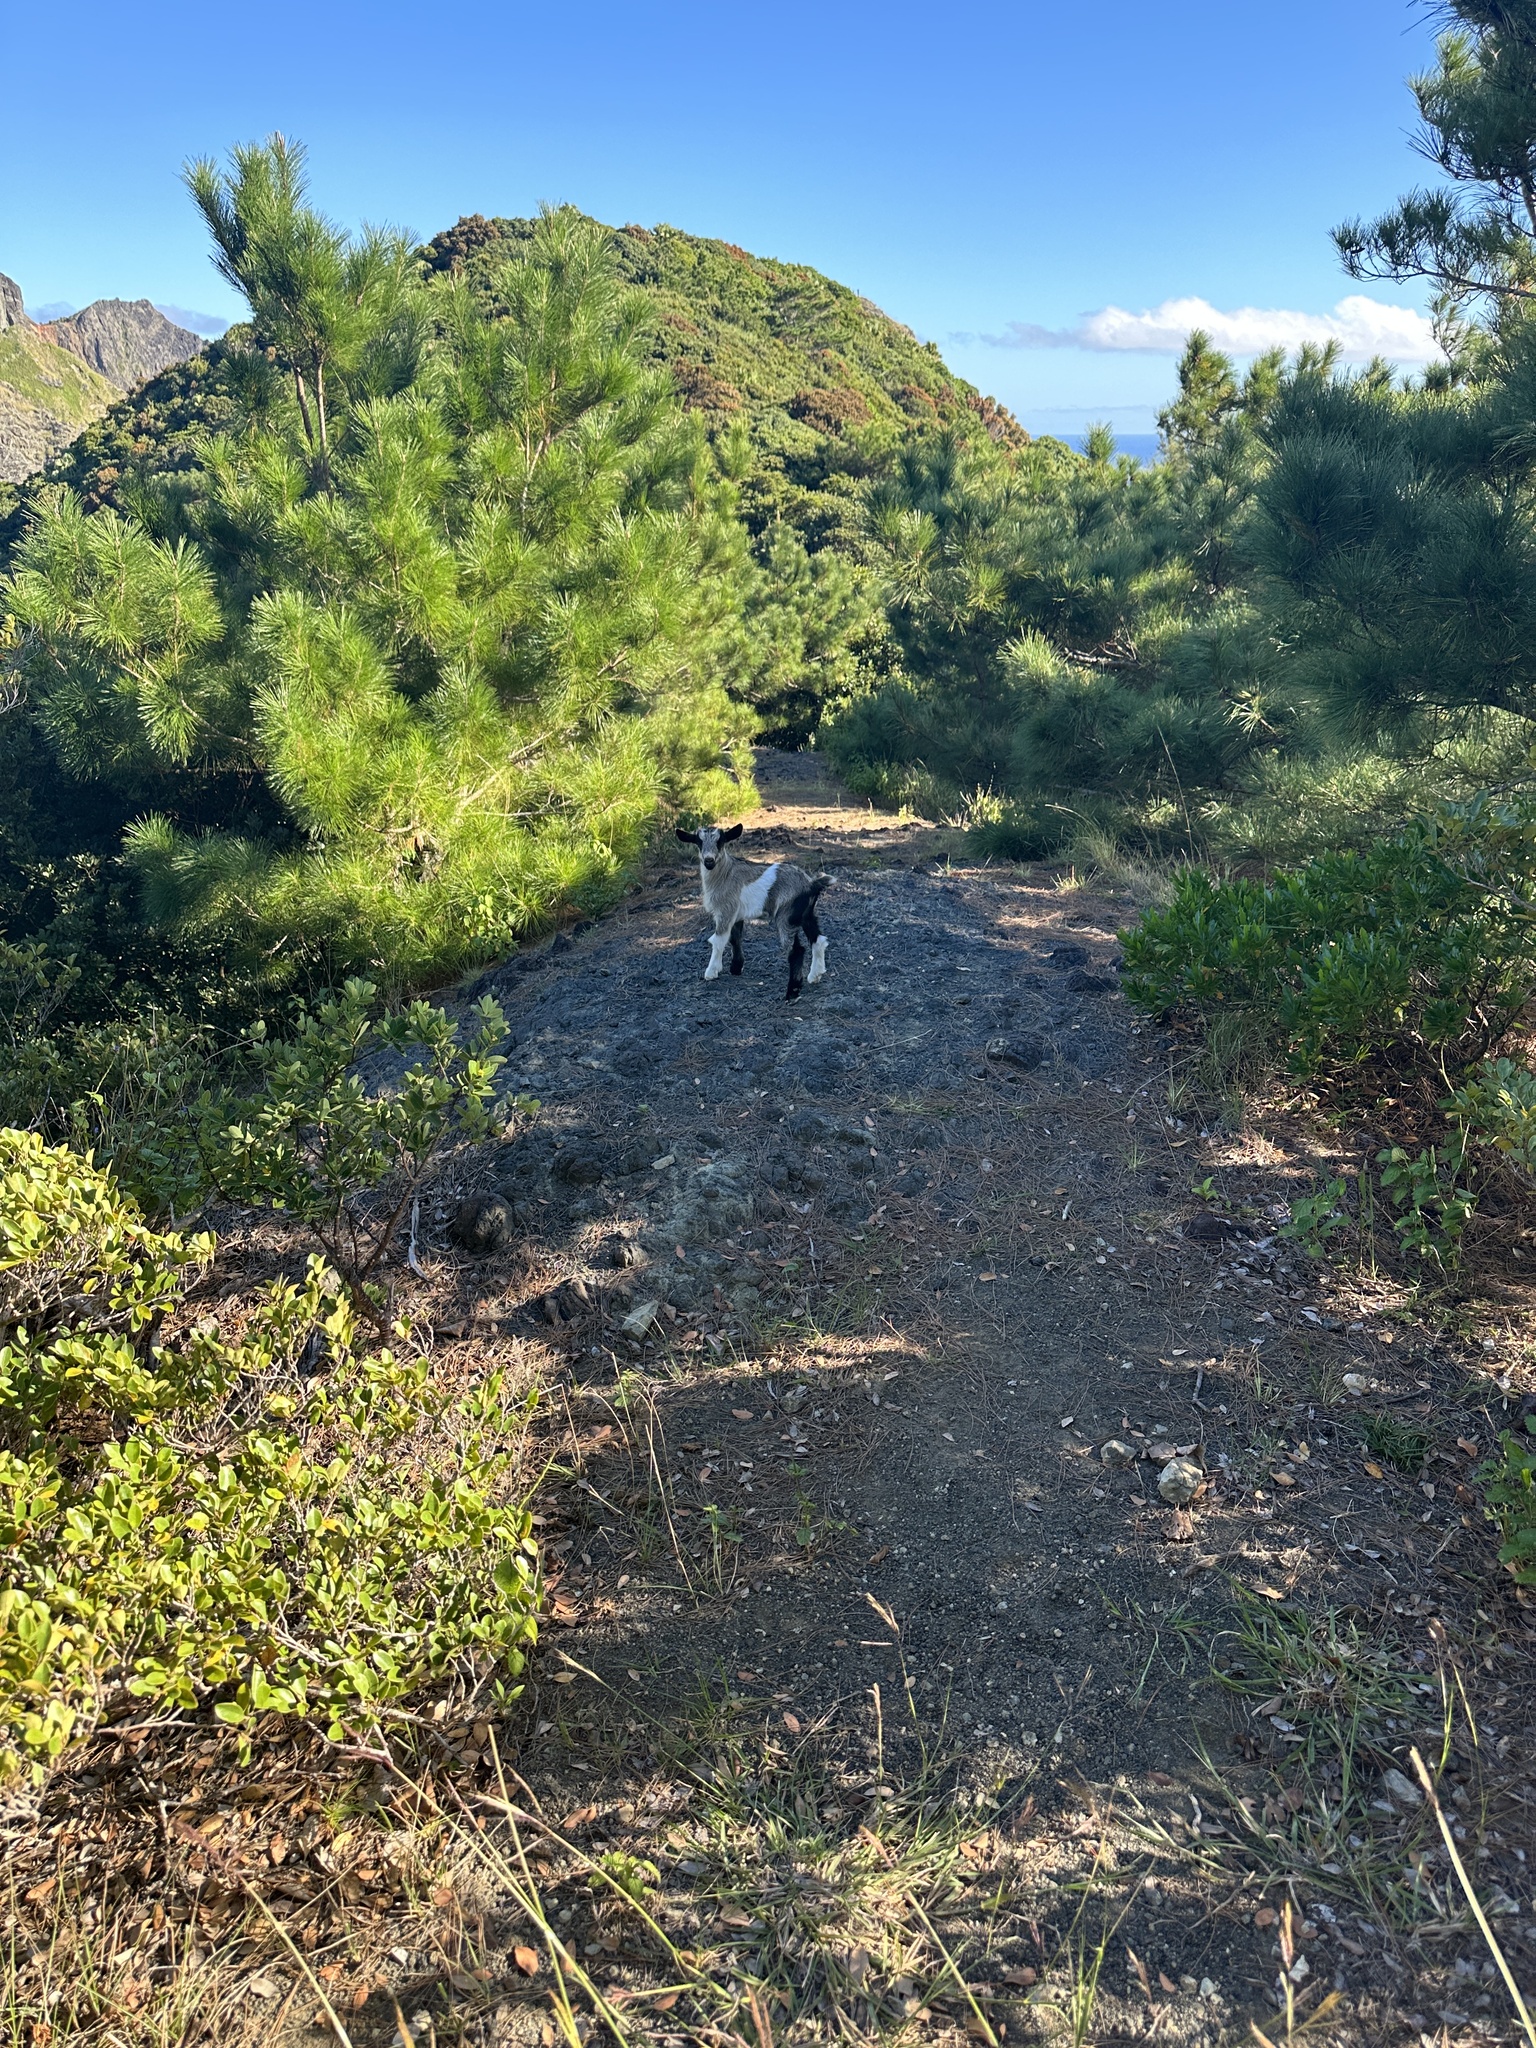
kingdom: Animalia
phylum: Chordata
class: Mammalia
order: Artiodactyla
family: Bovidae
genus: Capra
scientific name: Capra hircus
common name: Domestic goat
